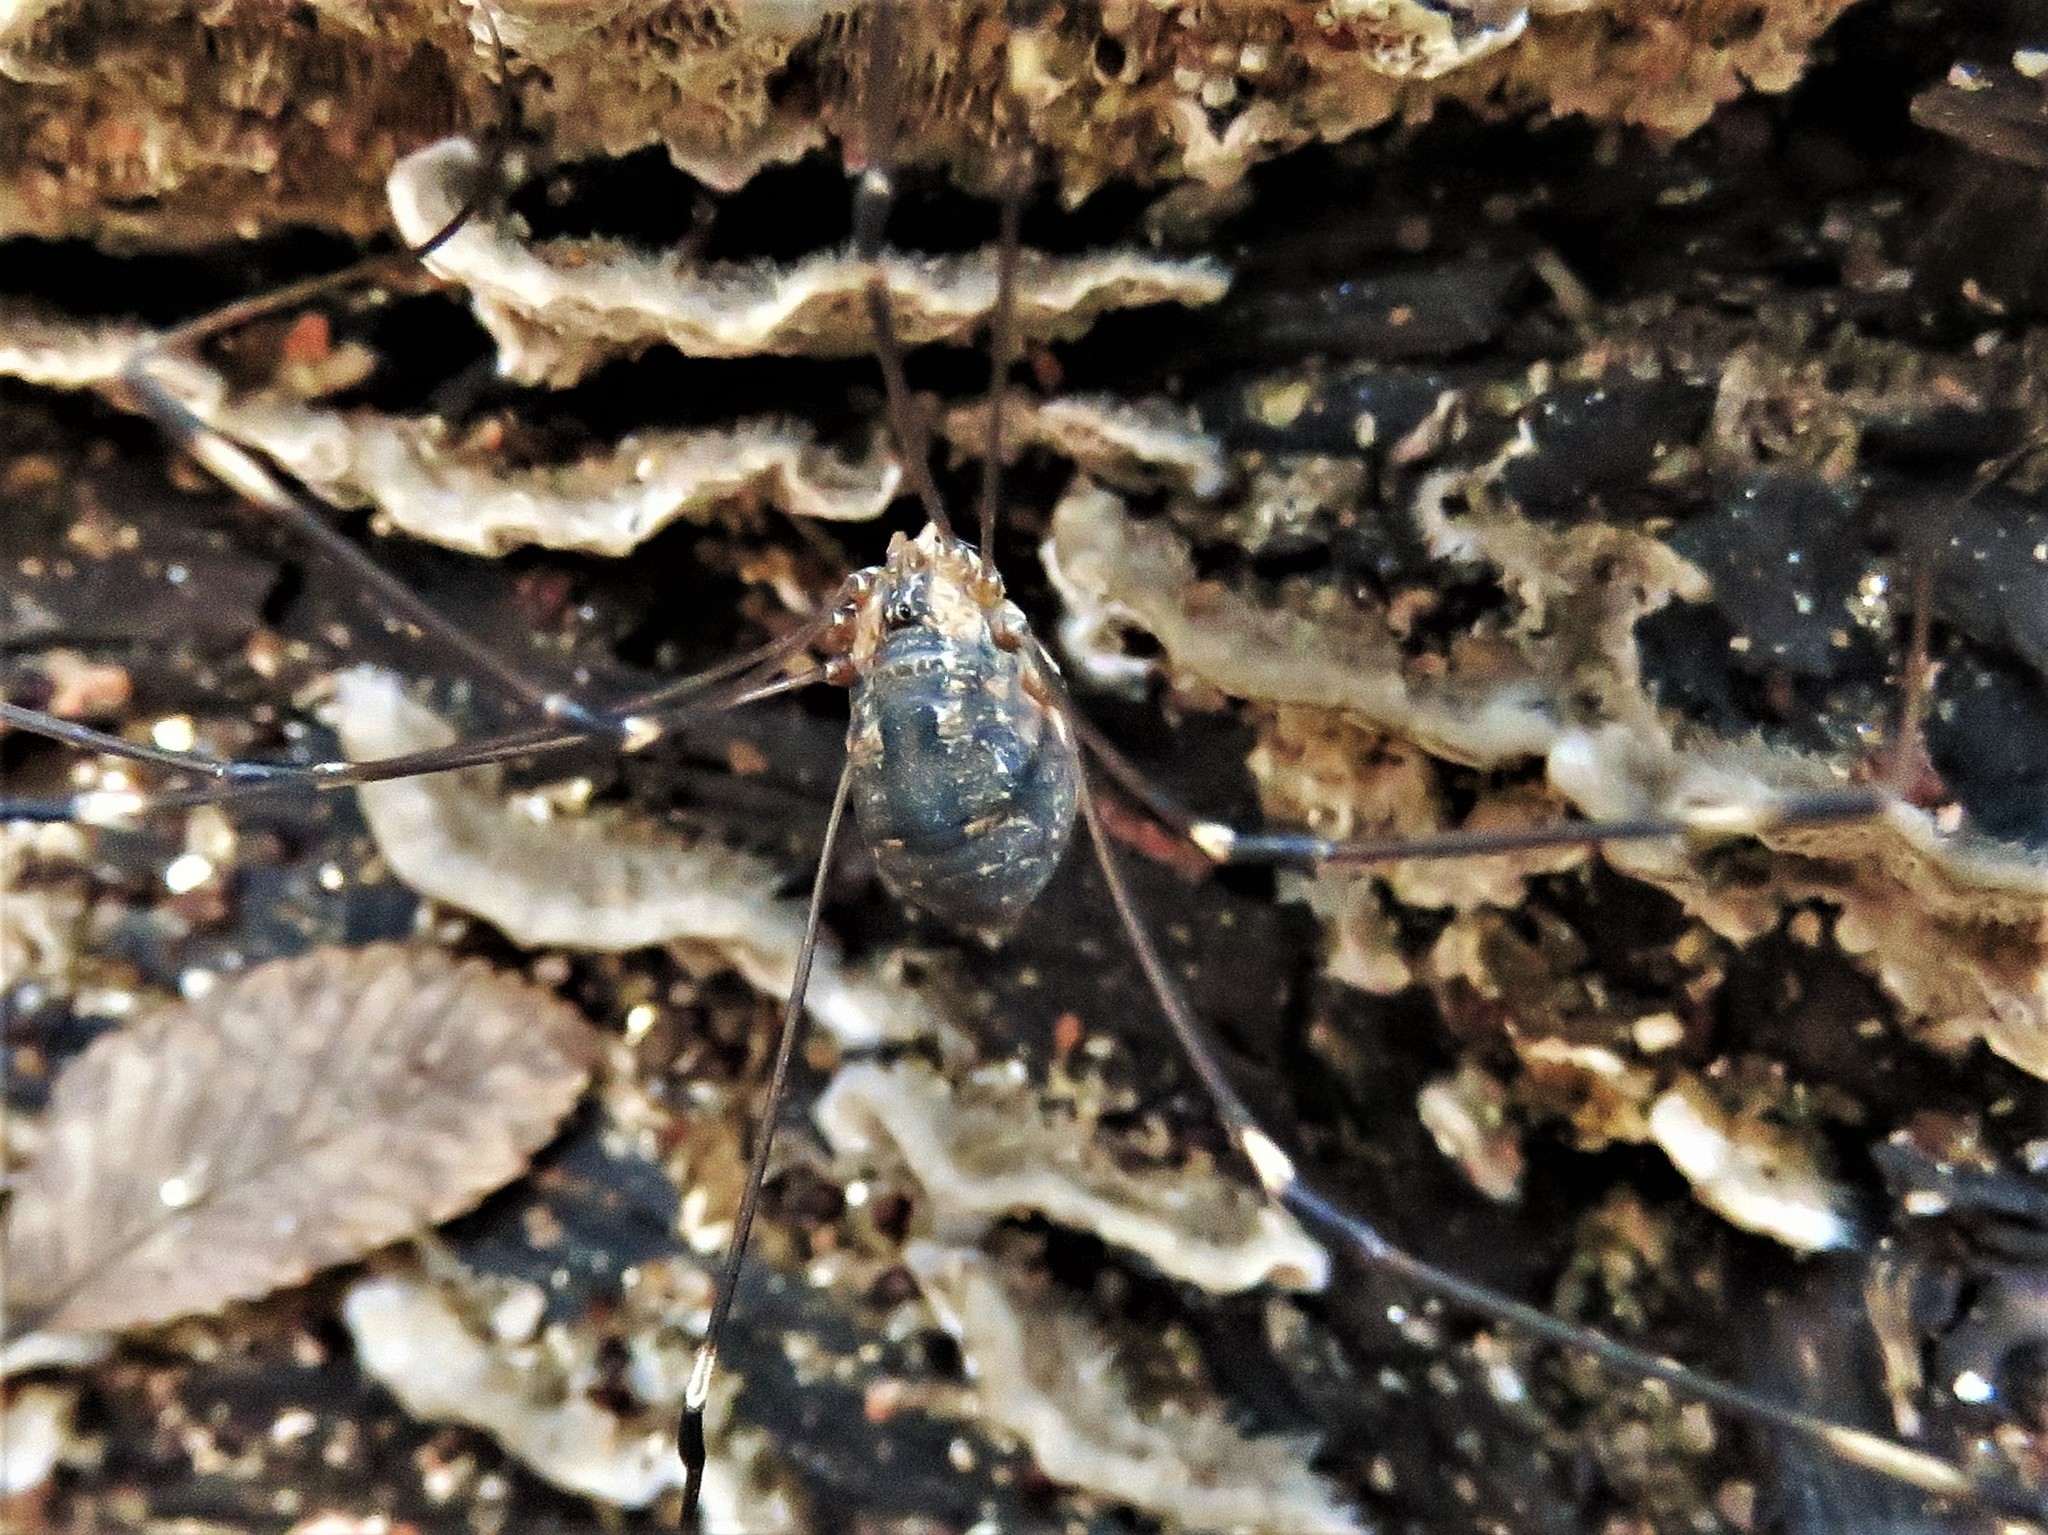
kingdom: Animalia
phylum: Arthropoda
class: Arachnida
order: Opiliones
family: Sclerosomatidae
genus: Leiobunum
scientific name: Leiobunum townsendi
